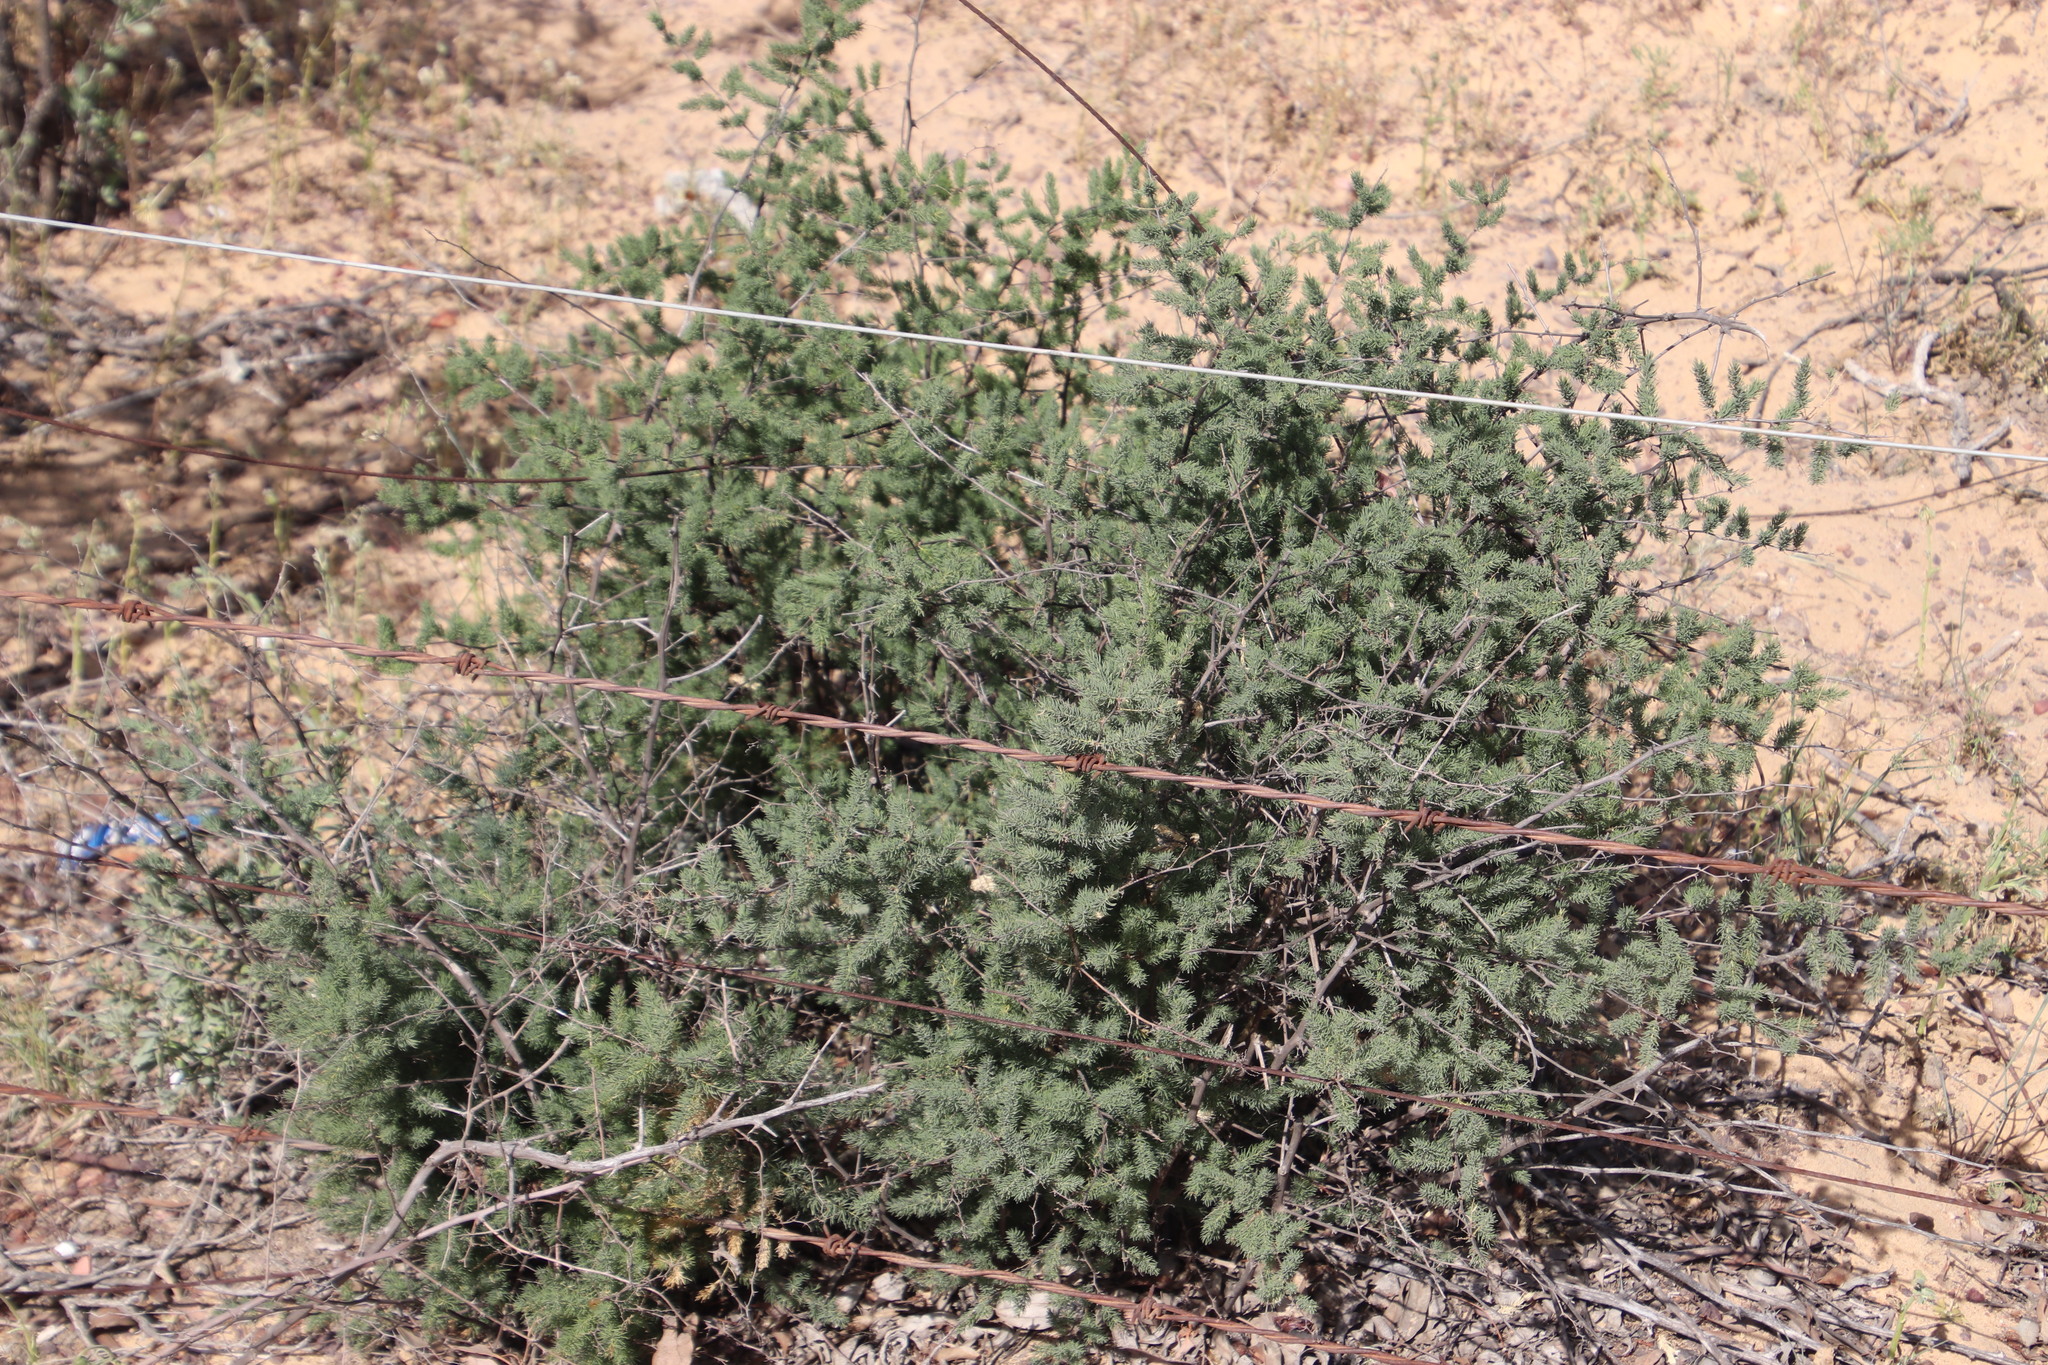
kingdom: Plantae
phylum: Tracheophyta
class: Liliopsida
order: Asparagales
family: Asparagaceae
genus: Asparagus
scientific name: Asparagus rubicundus
